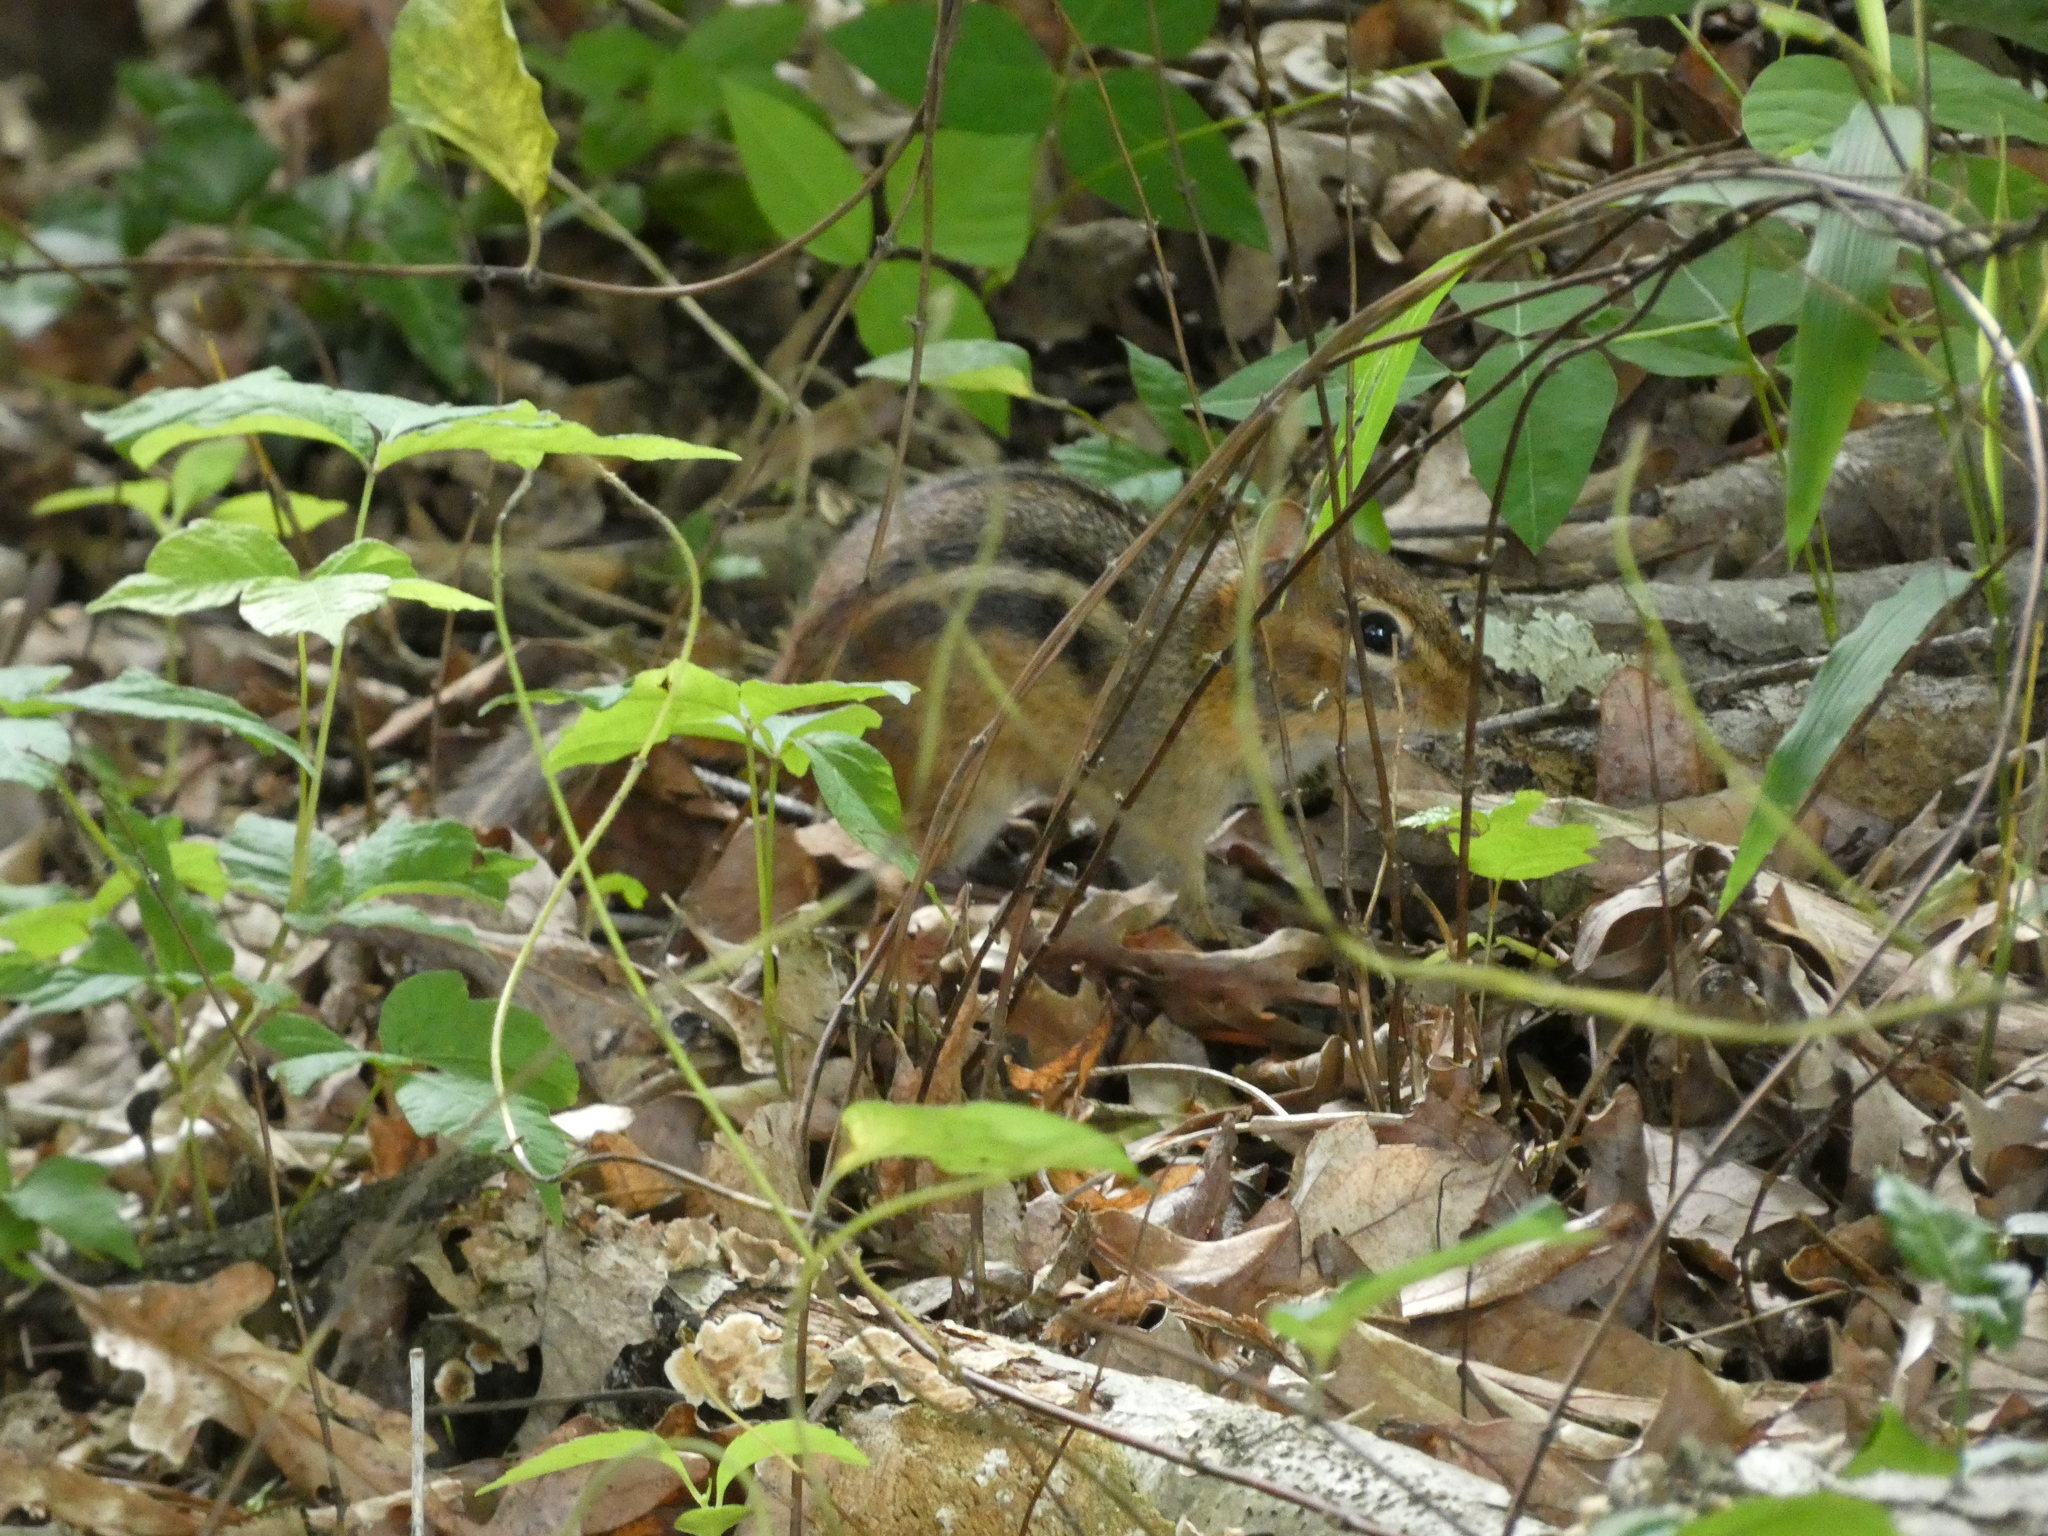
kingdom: Animalia
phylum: Chordata
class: Mammalia
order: Rodentia
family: Sciuridae
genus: Tamias
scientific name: Tamias striatus
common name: Eastern chipmunk
